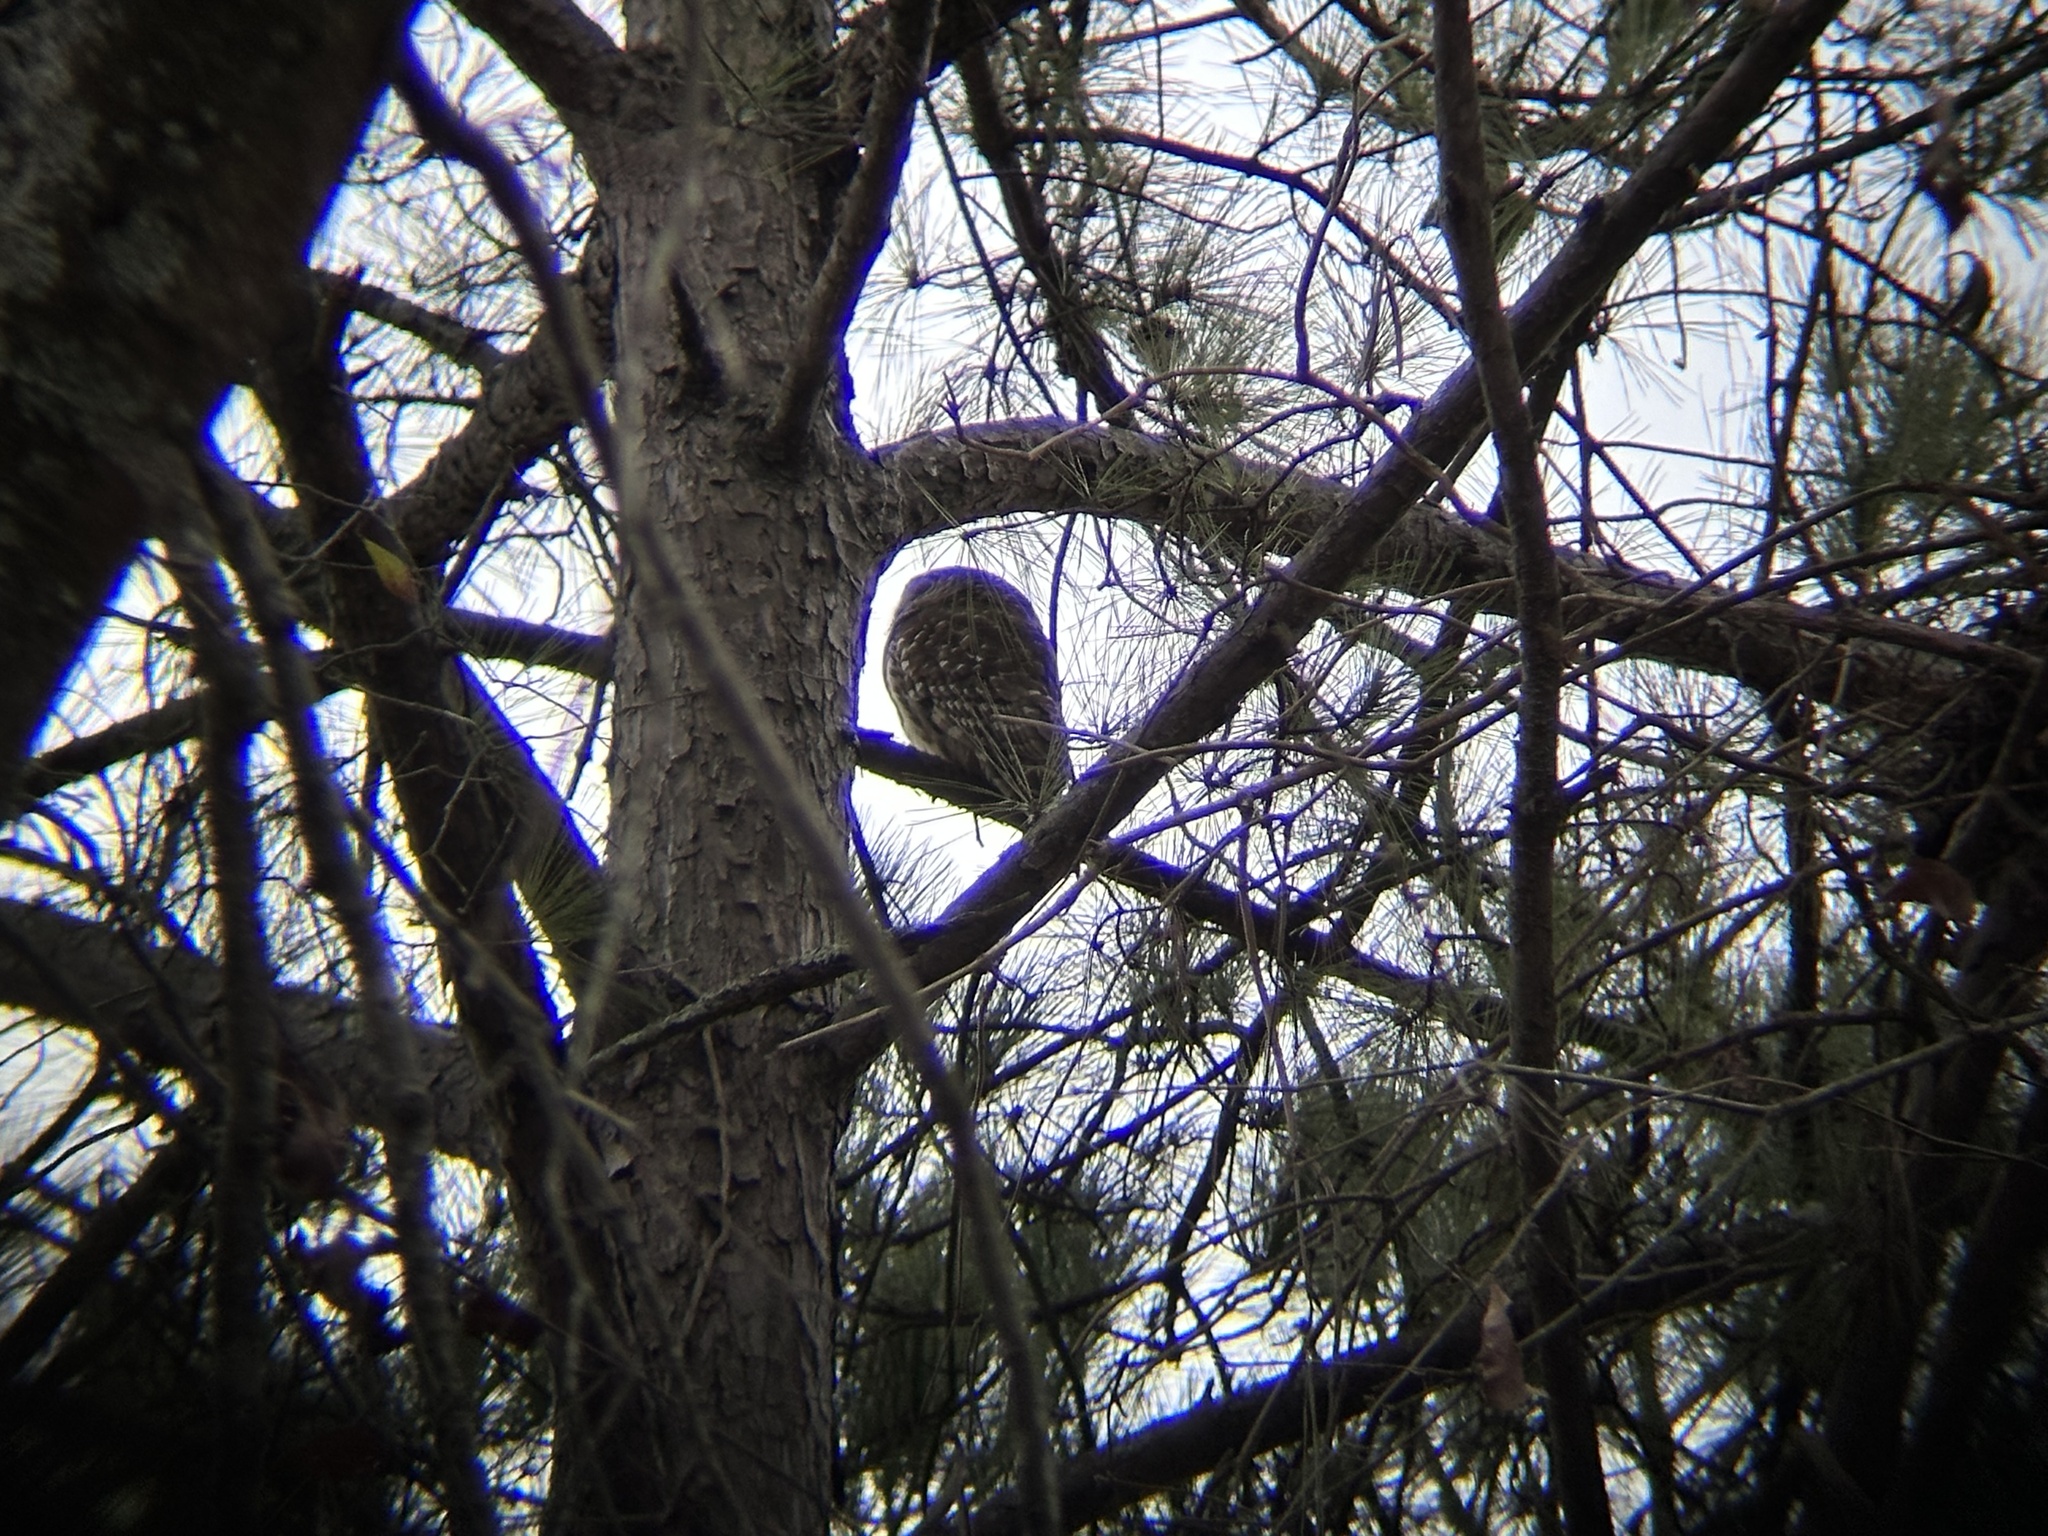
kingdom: Animalia
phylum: Chordata
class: Aves
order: Strigiformes
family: Strigidae
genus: Strix
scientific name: Strix varia
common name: Barred owl
